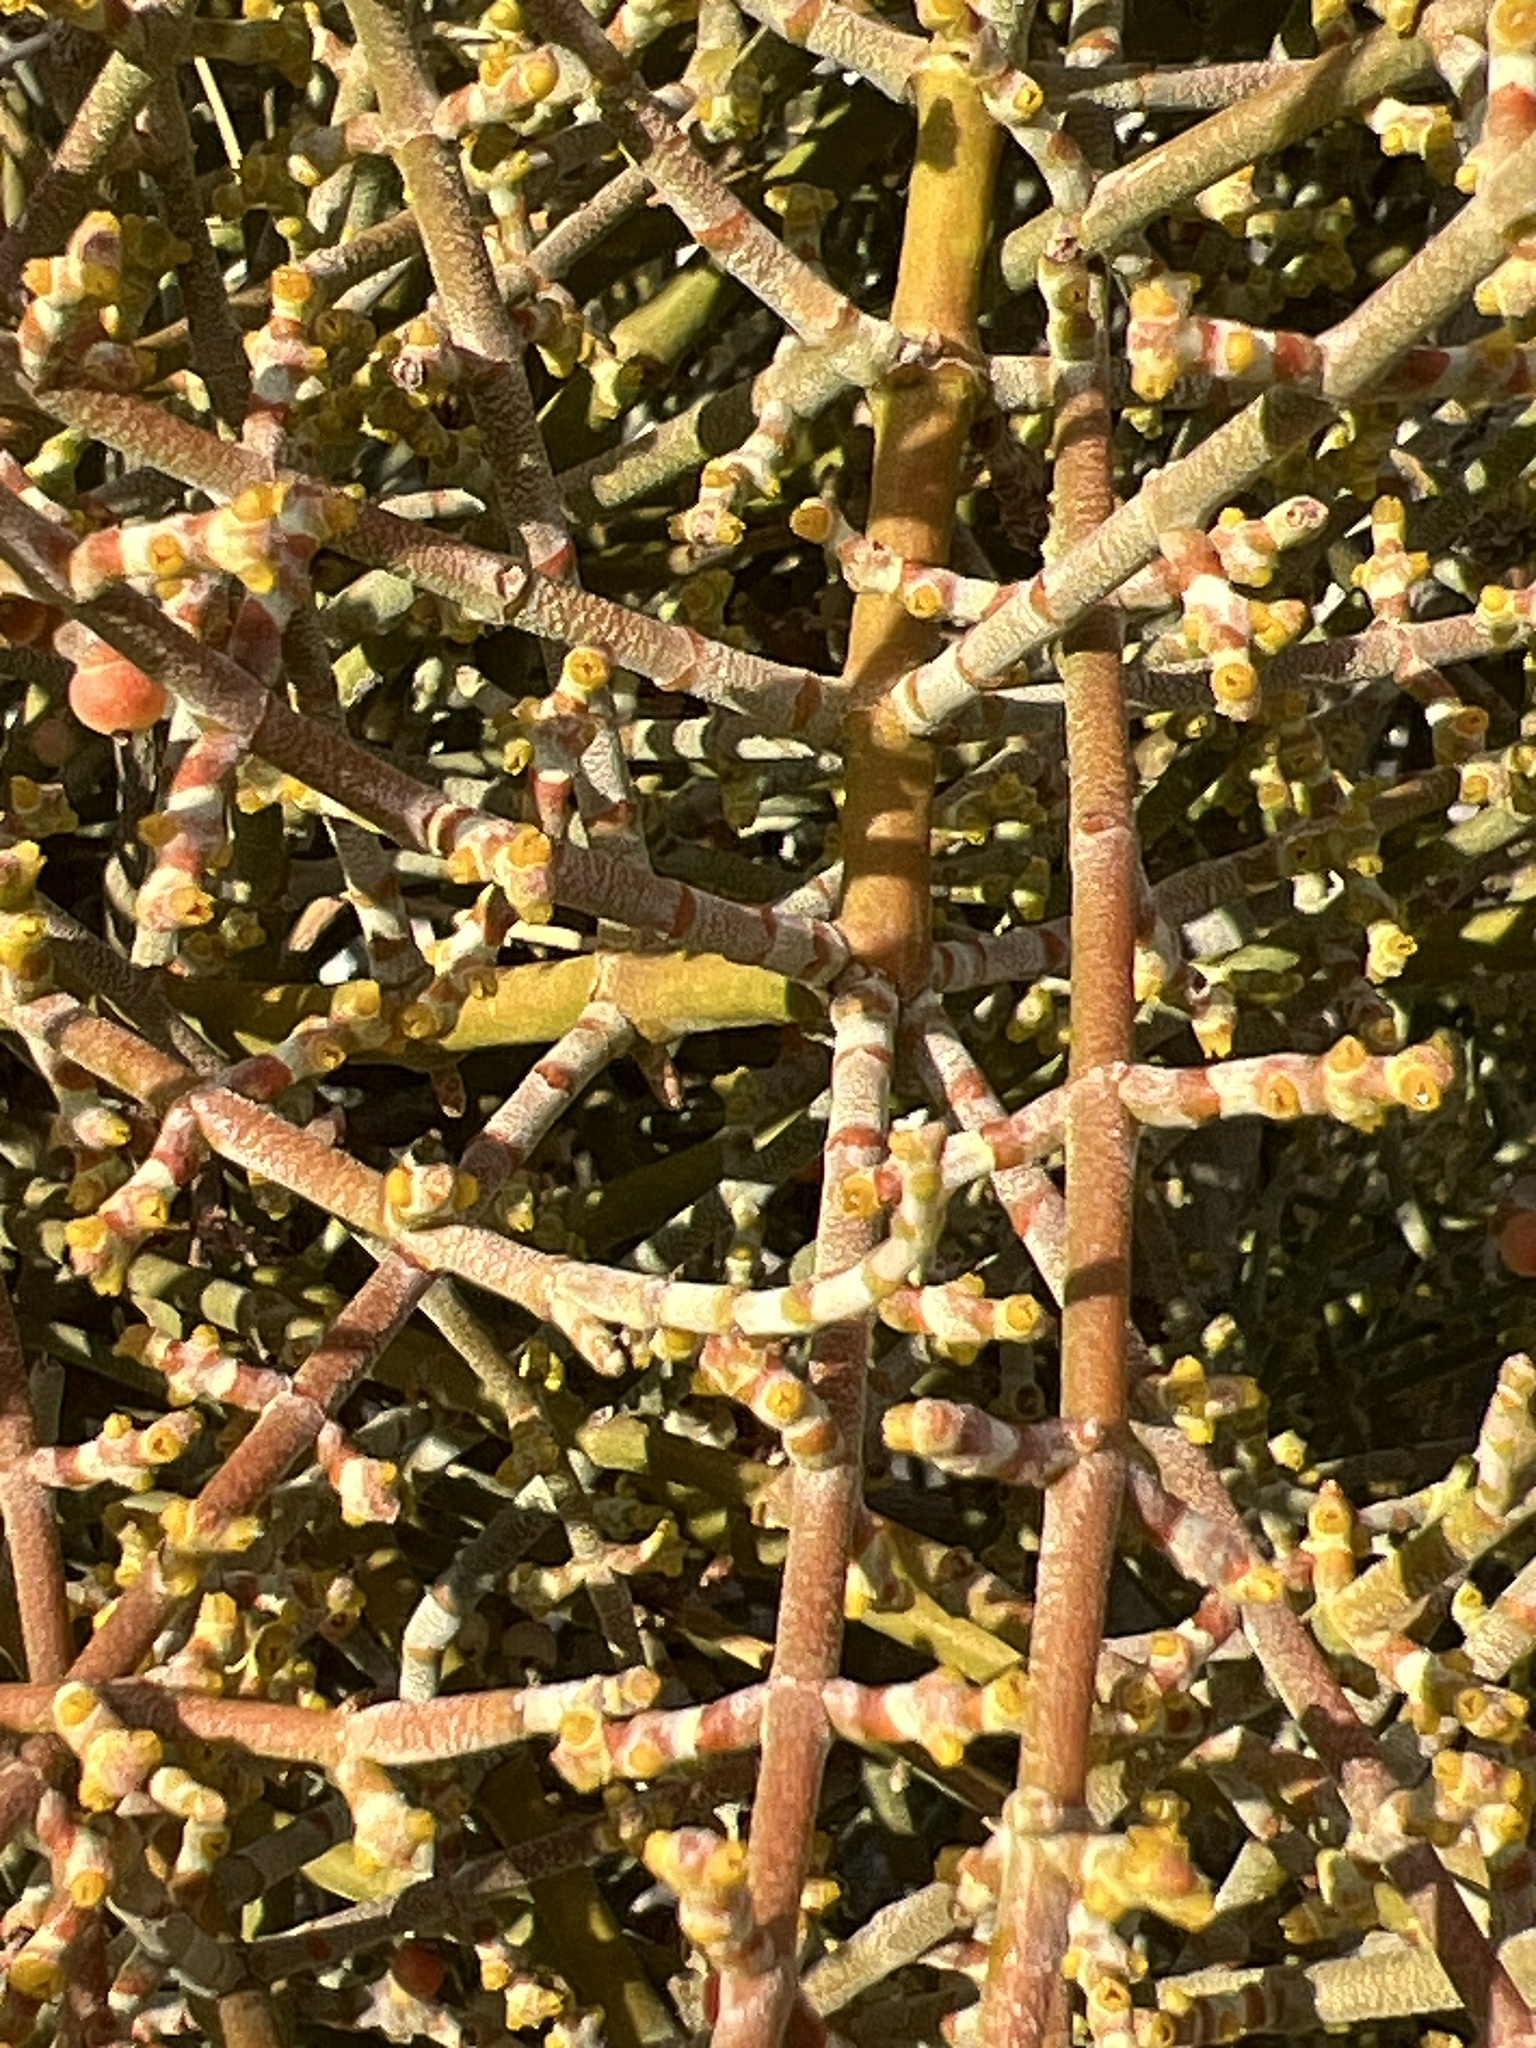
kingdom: Plantae
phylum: Tracheophyta
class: Magnoliopsida
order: Santalales
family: Viscaceae
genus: Phoradendron
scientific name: Phoradendron californicum
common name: Acacia mistletoe
